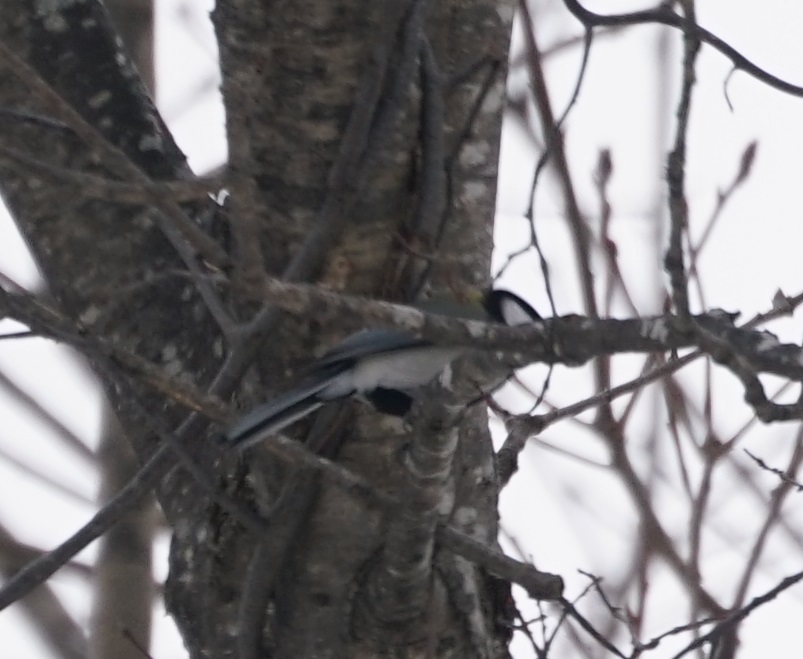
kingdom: Animalia
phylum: Chordata
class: Aves
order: Passeriformes
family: Paridae
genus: Parus
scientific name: Parus minor
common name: Japanese tit
